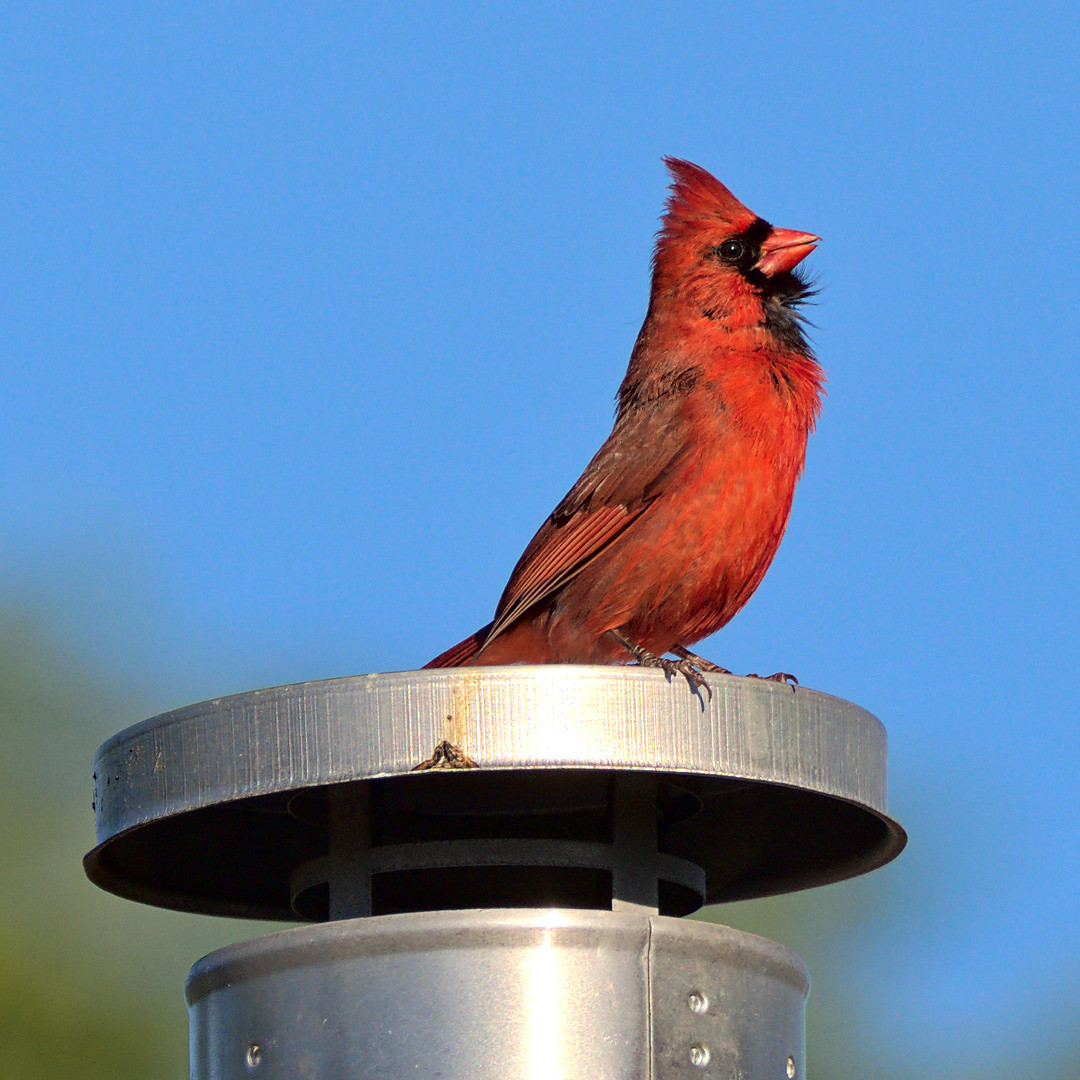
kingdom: Animalia
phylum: Chordata
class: Aves
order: Passeriformes
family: Cardinalidae
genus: Cardinalis
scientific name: Cardinalis cardinalis
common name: Northern cardinal
